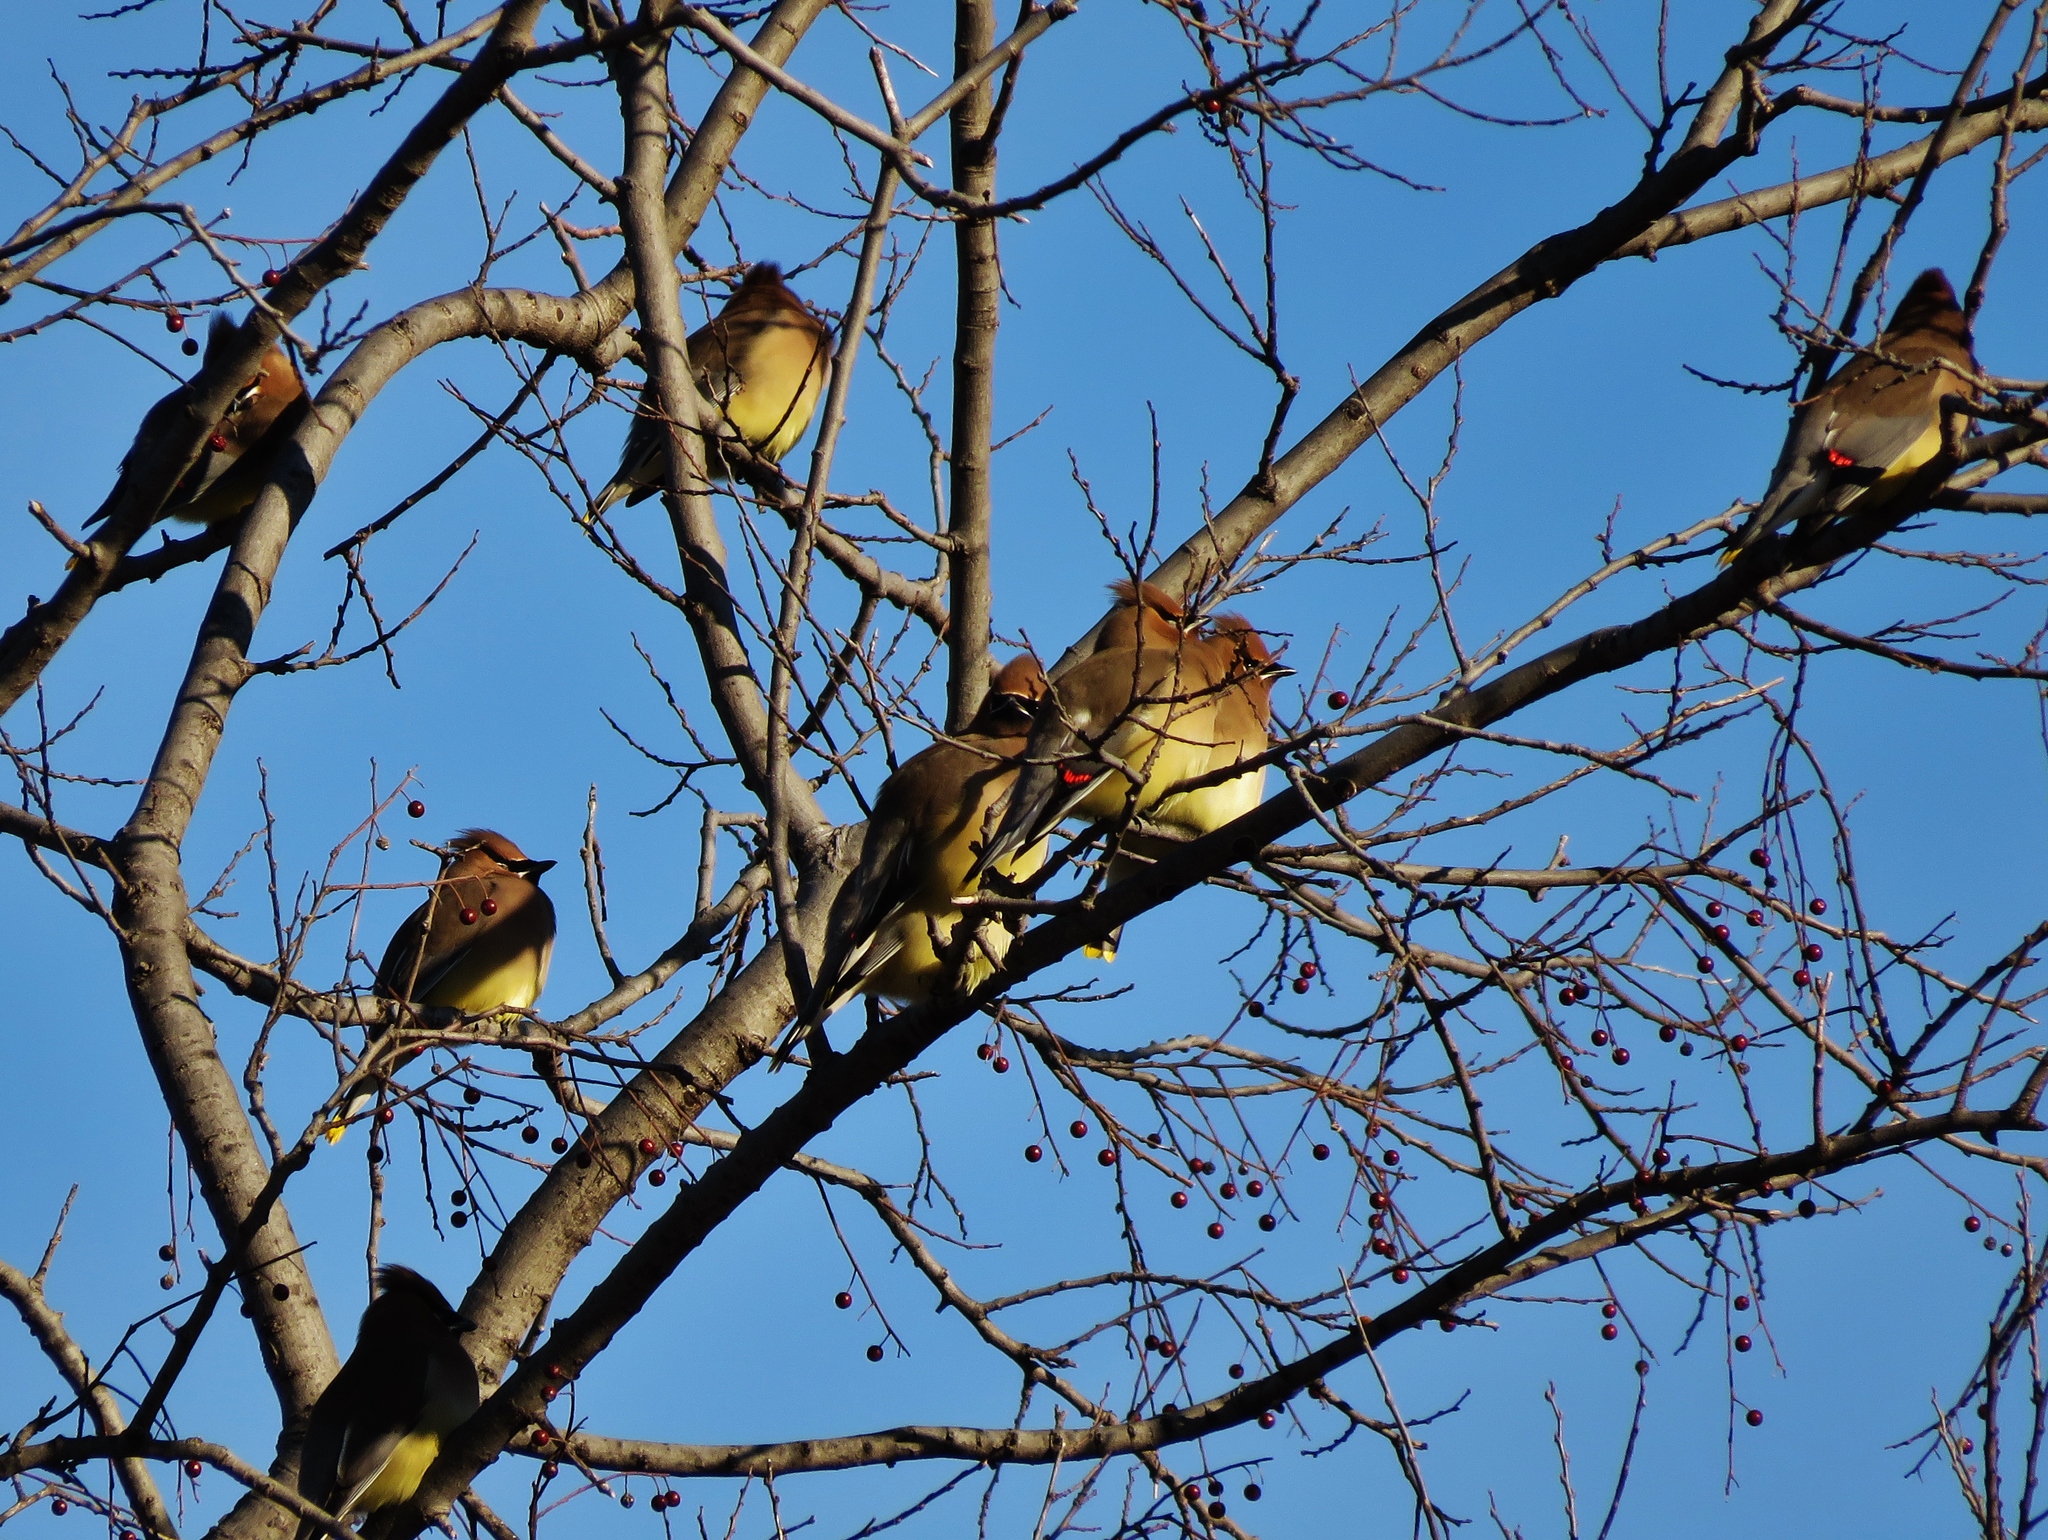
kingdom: Animalia
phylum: Chordata
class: Aves
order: Passeriformes
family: Bombycillidae
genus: Bombycilla
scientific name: Bombycilla cedrorum
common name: Cedar waxwing
